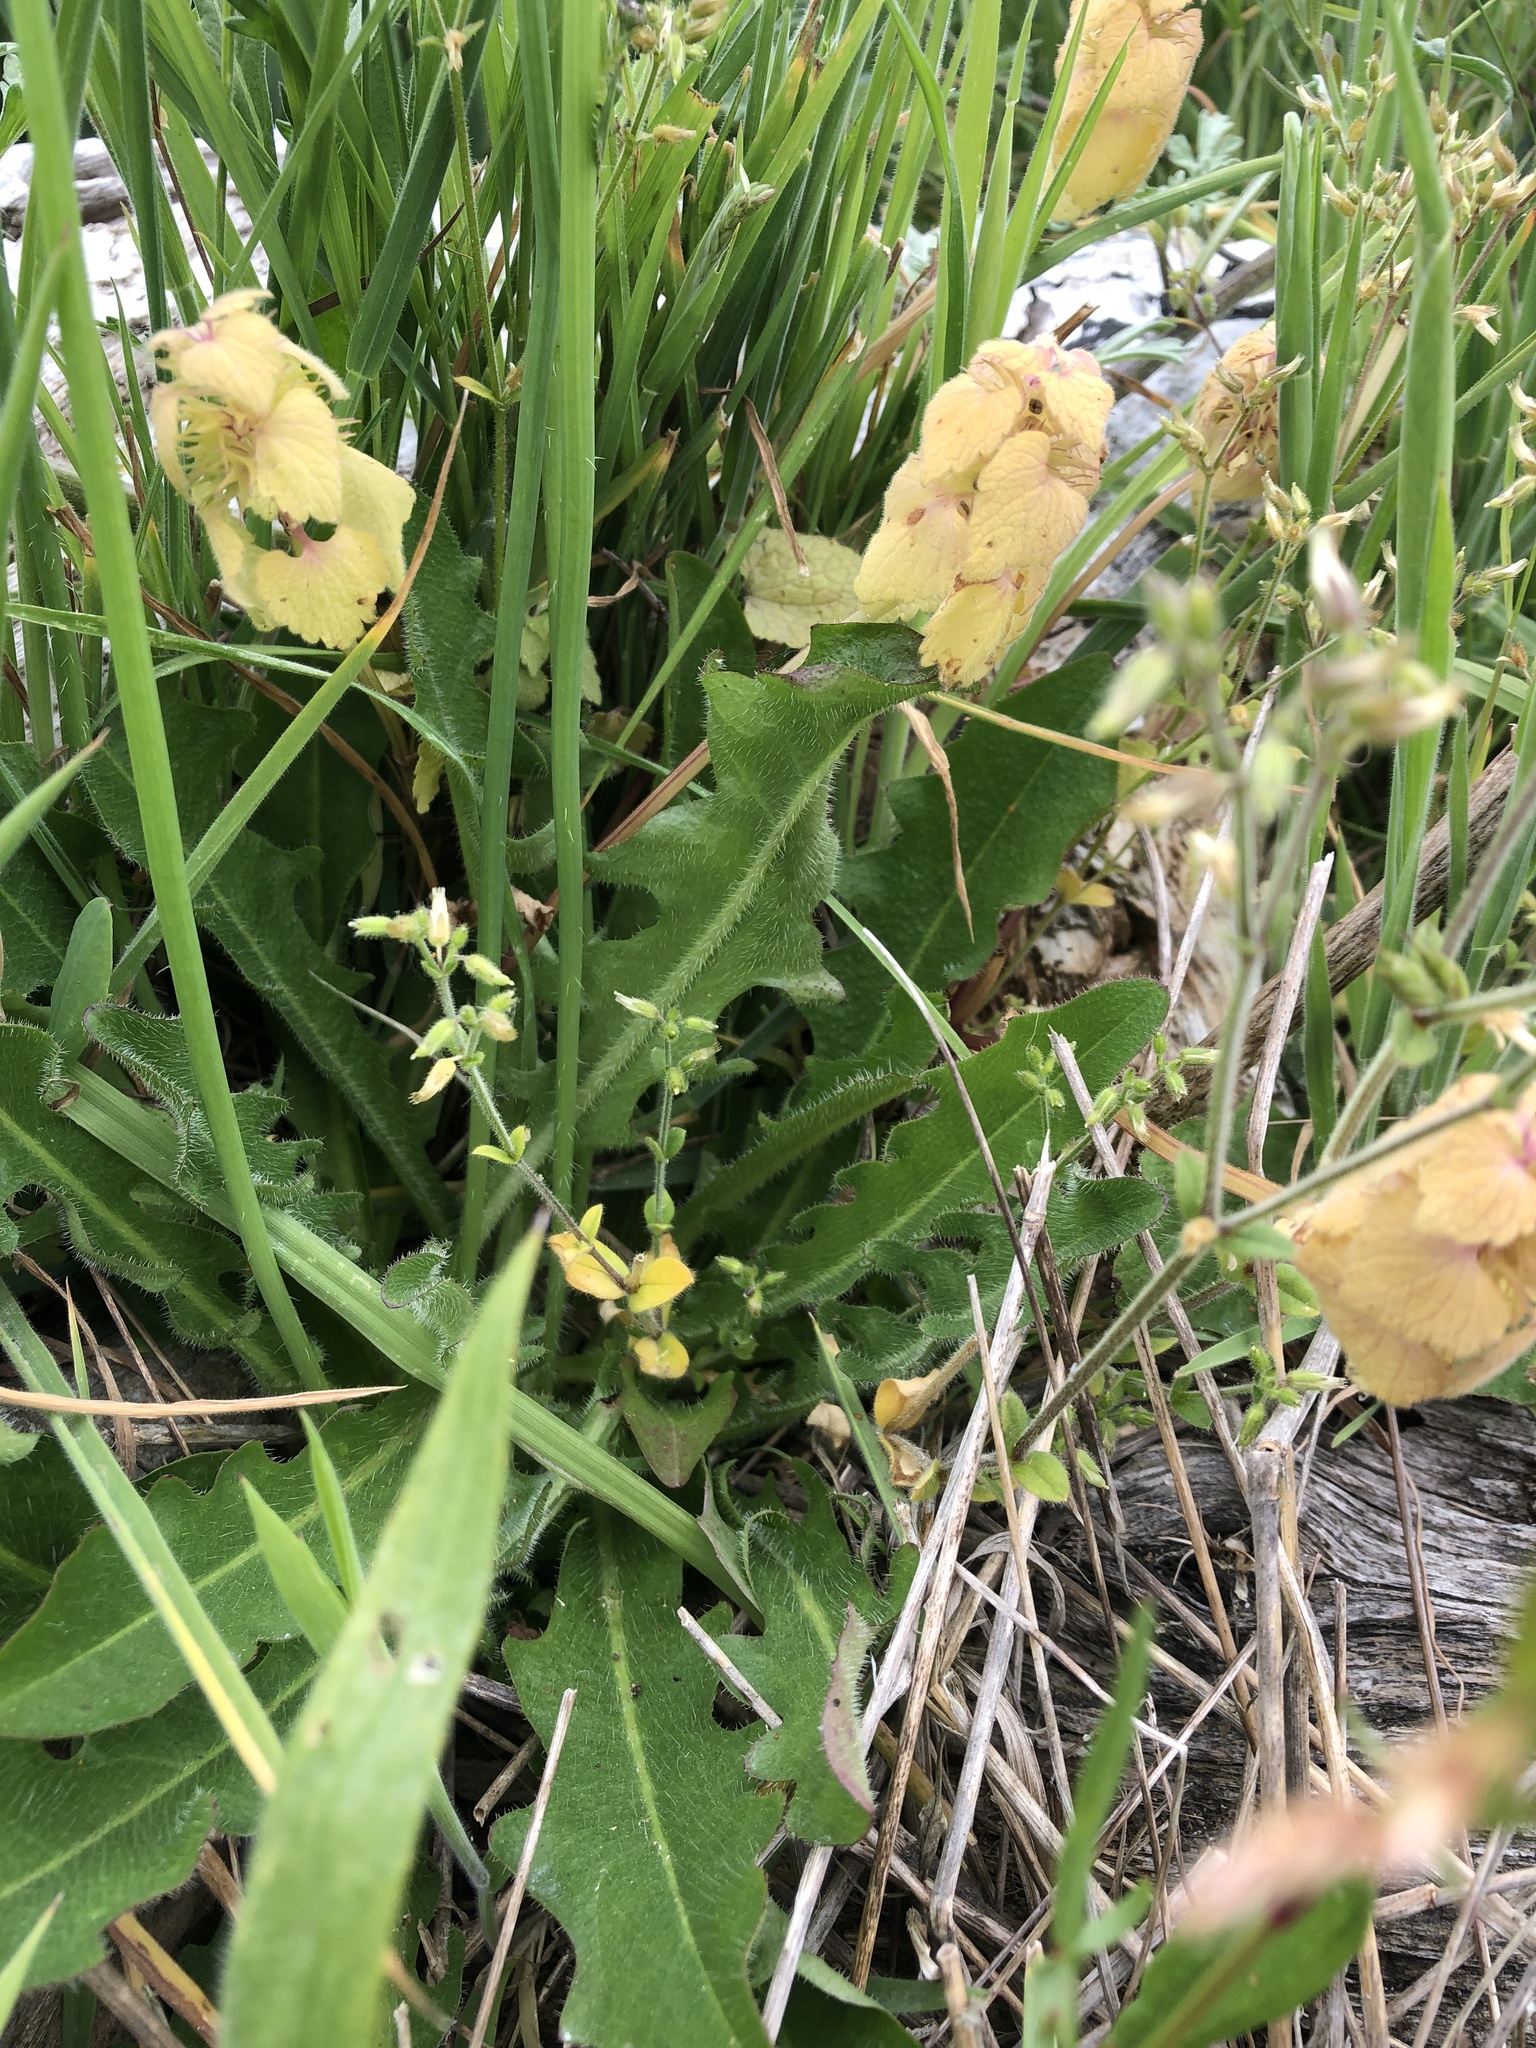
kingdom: Plantae
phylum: Tracheophyta
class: Magnoliopsida
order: Lamiales
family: Lamiaceae
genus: Lamium
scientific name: Lamium purpureum
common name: Red dead-nettle
